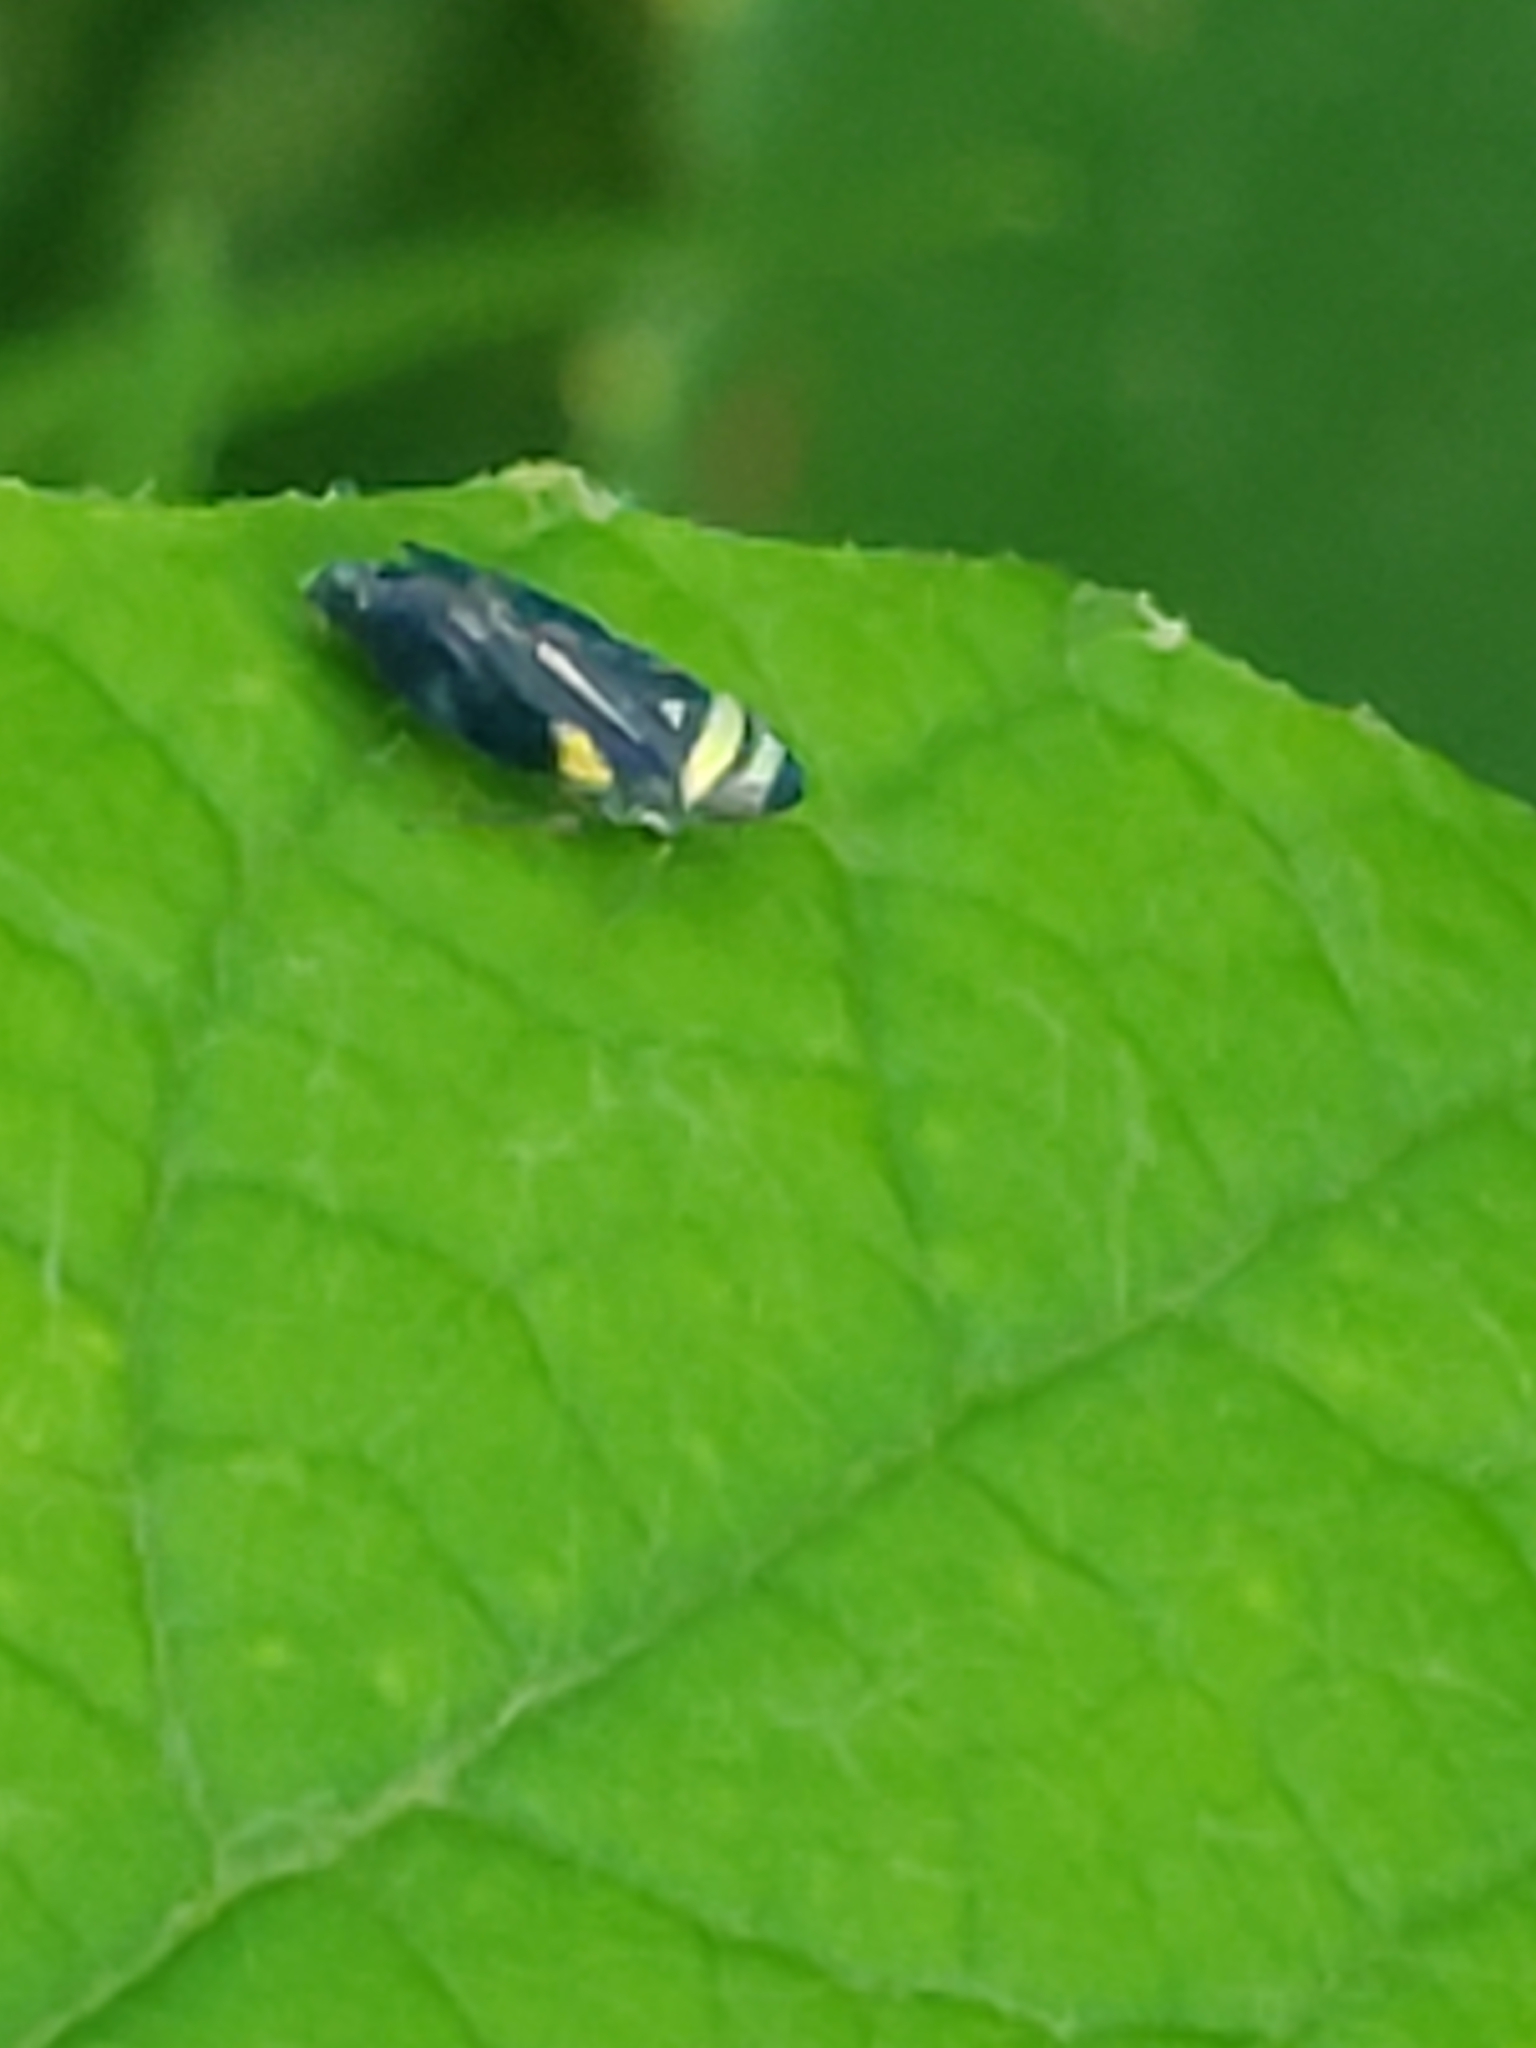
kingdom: Animalia
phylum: Arthropoda
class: Insecta
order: Hemiptera
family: Cicadellidae
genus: Stirellus
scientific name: Stirellus bicolor
